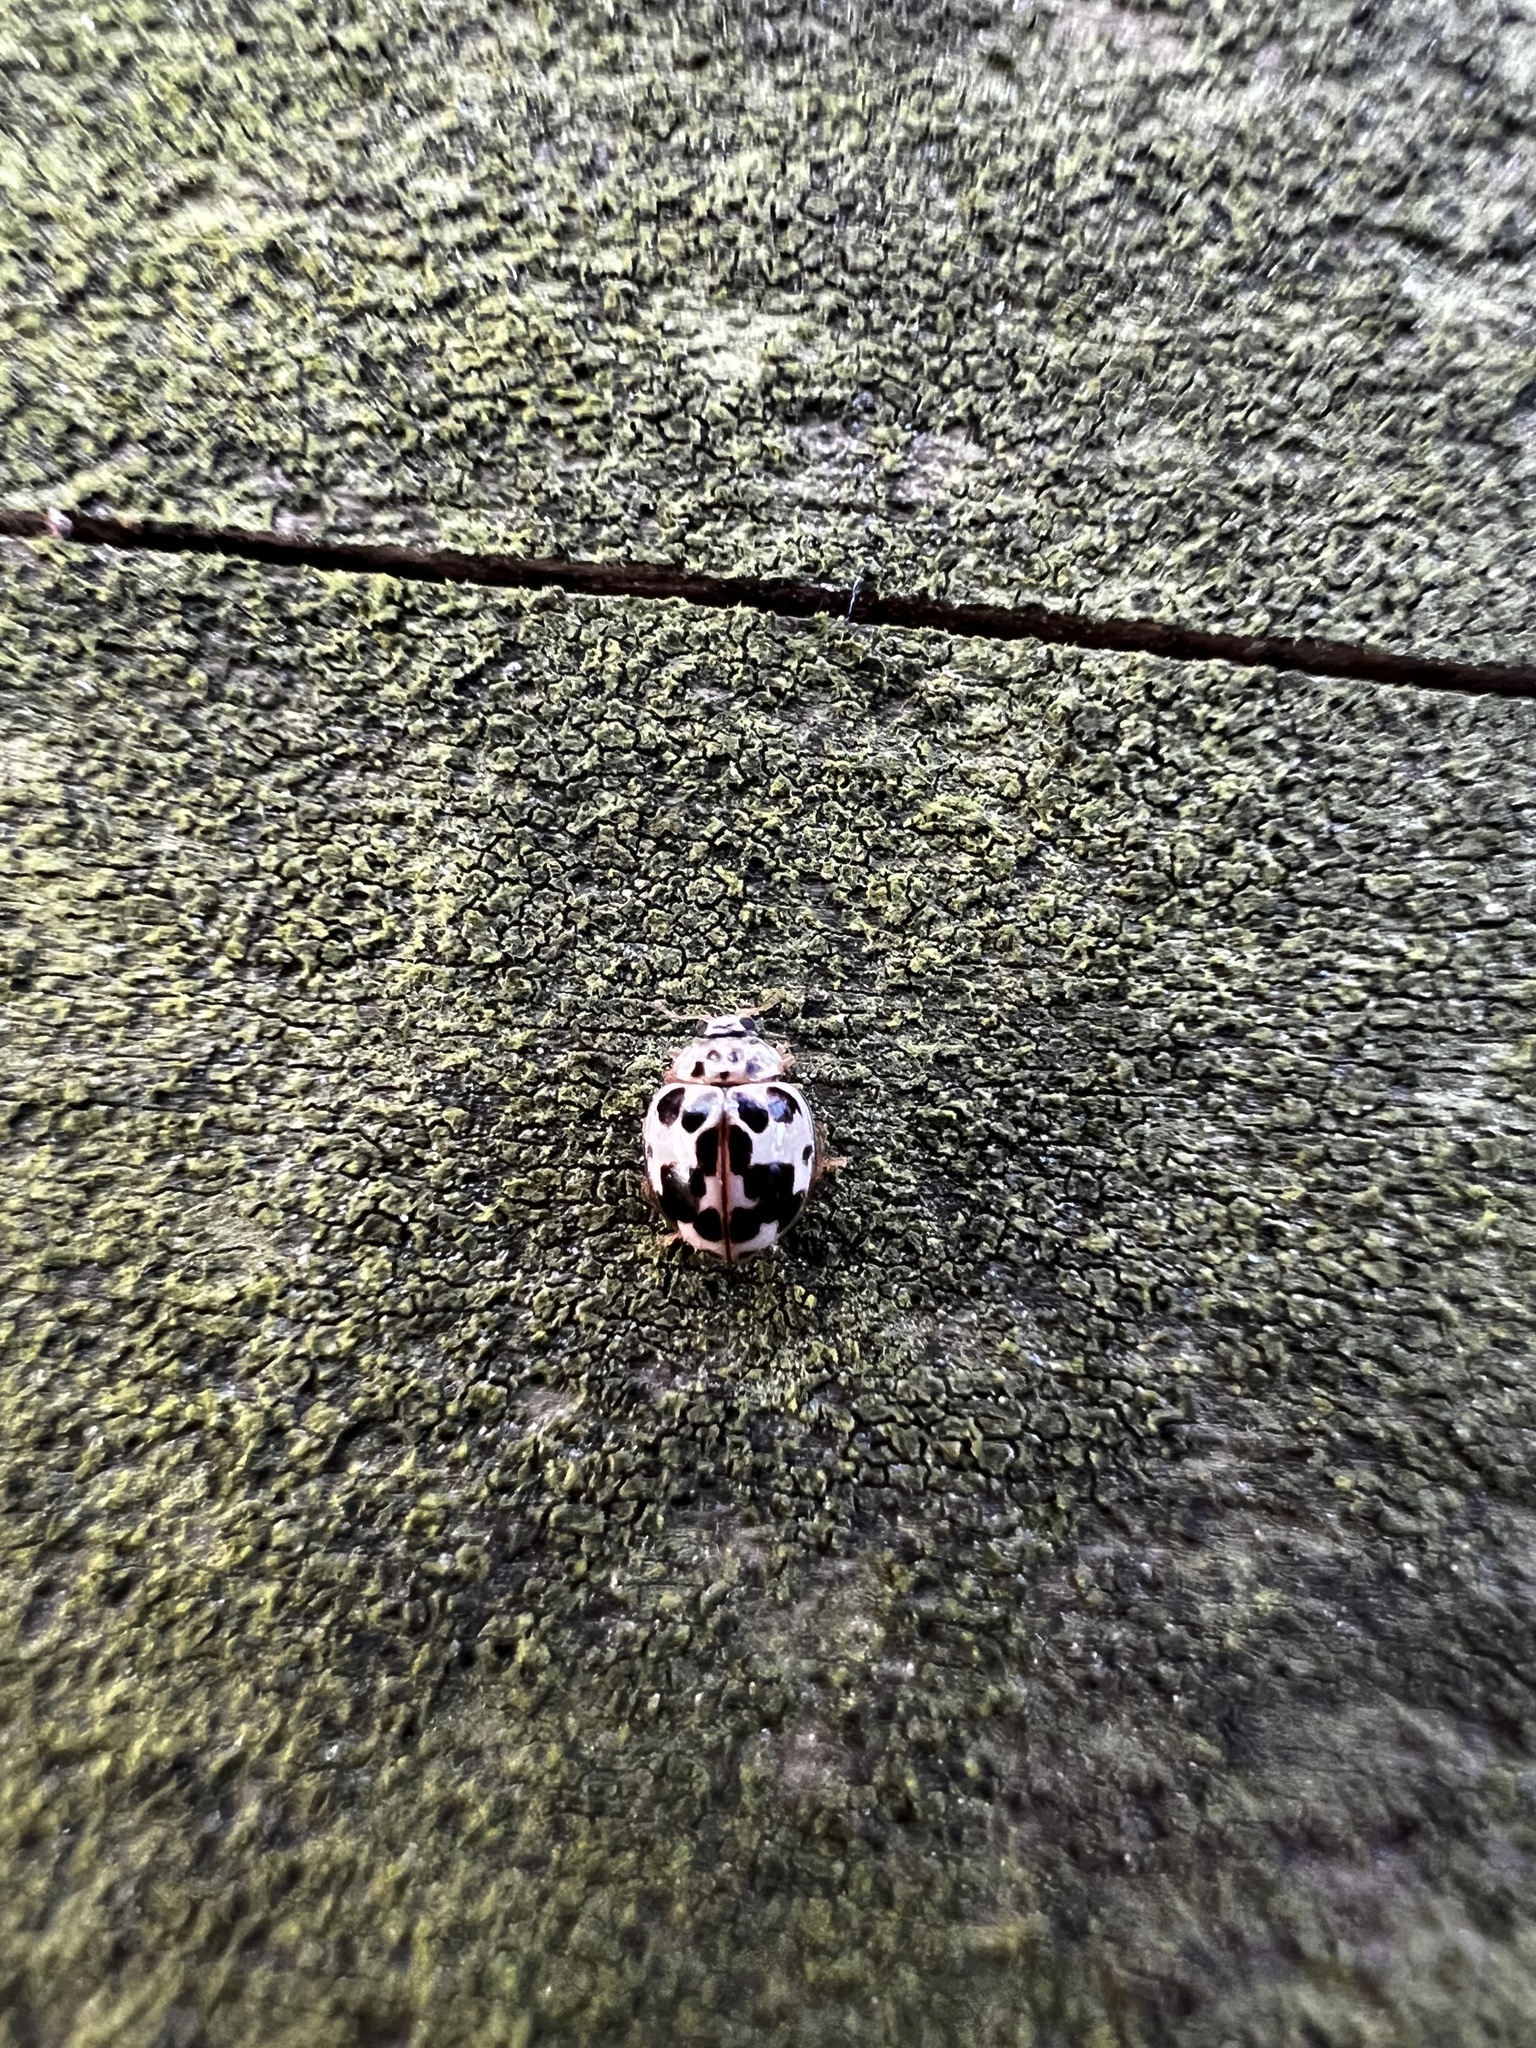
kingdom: Animalia
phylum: Arthropoda
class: Insecta
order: Coleoptera
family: Coccinellidae
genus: Psyllobora
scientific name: Psyllobora borealis
